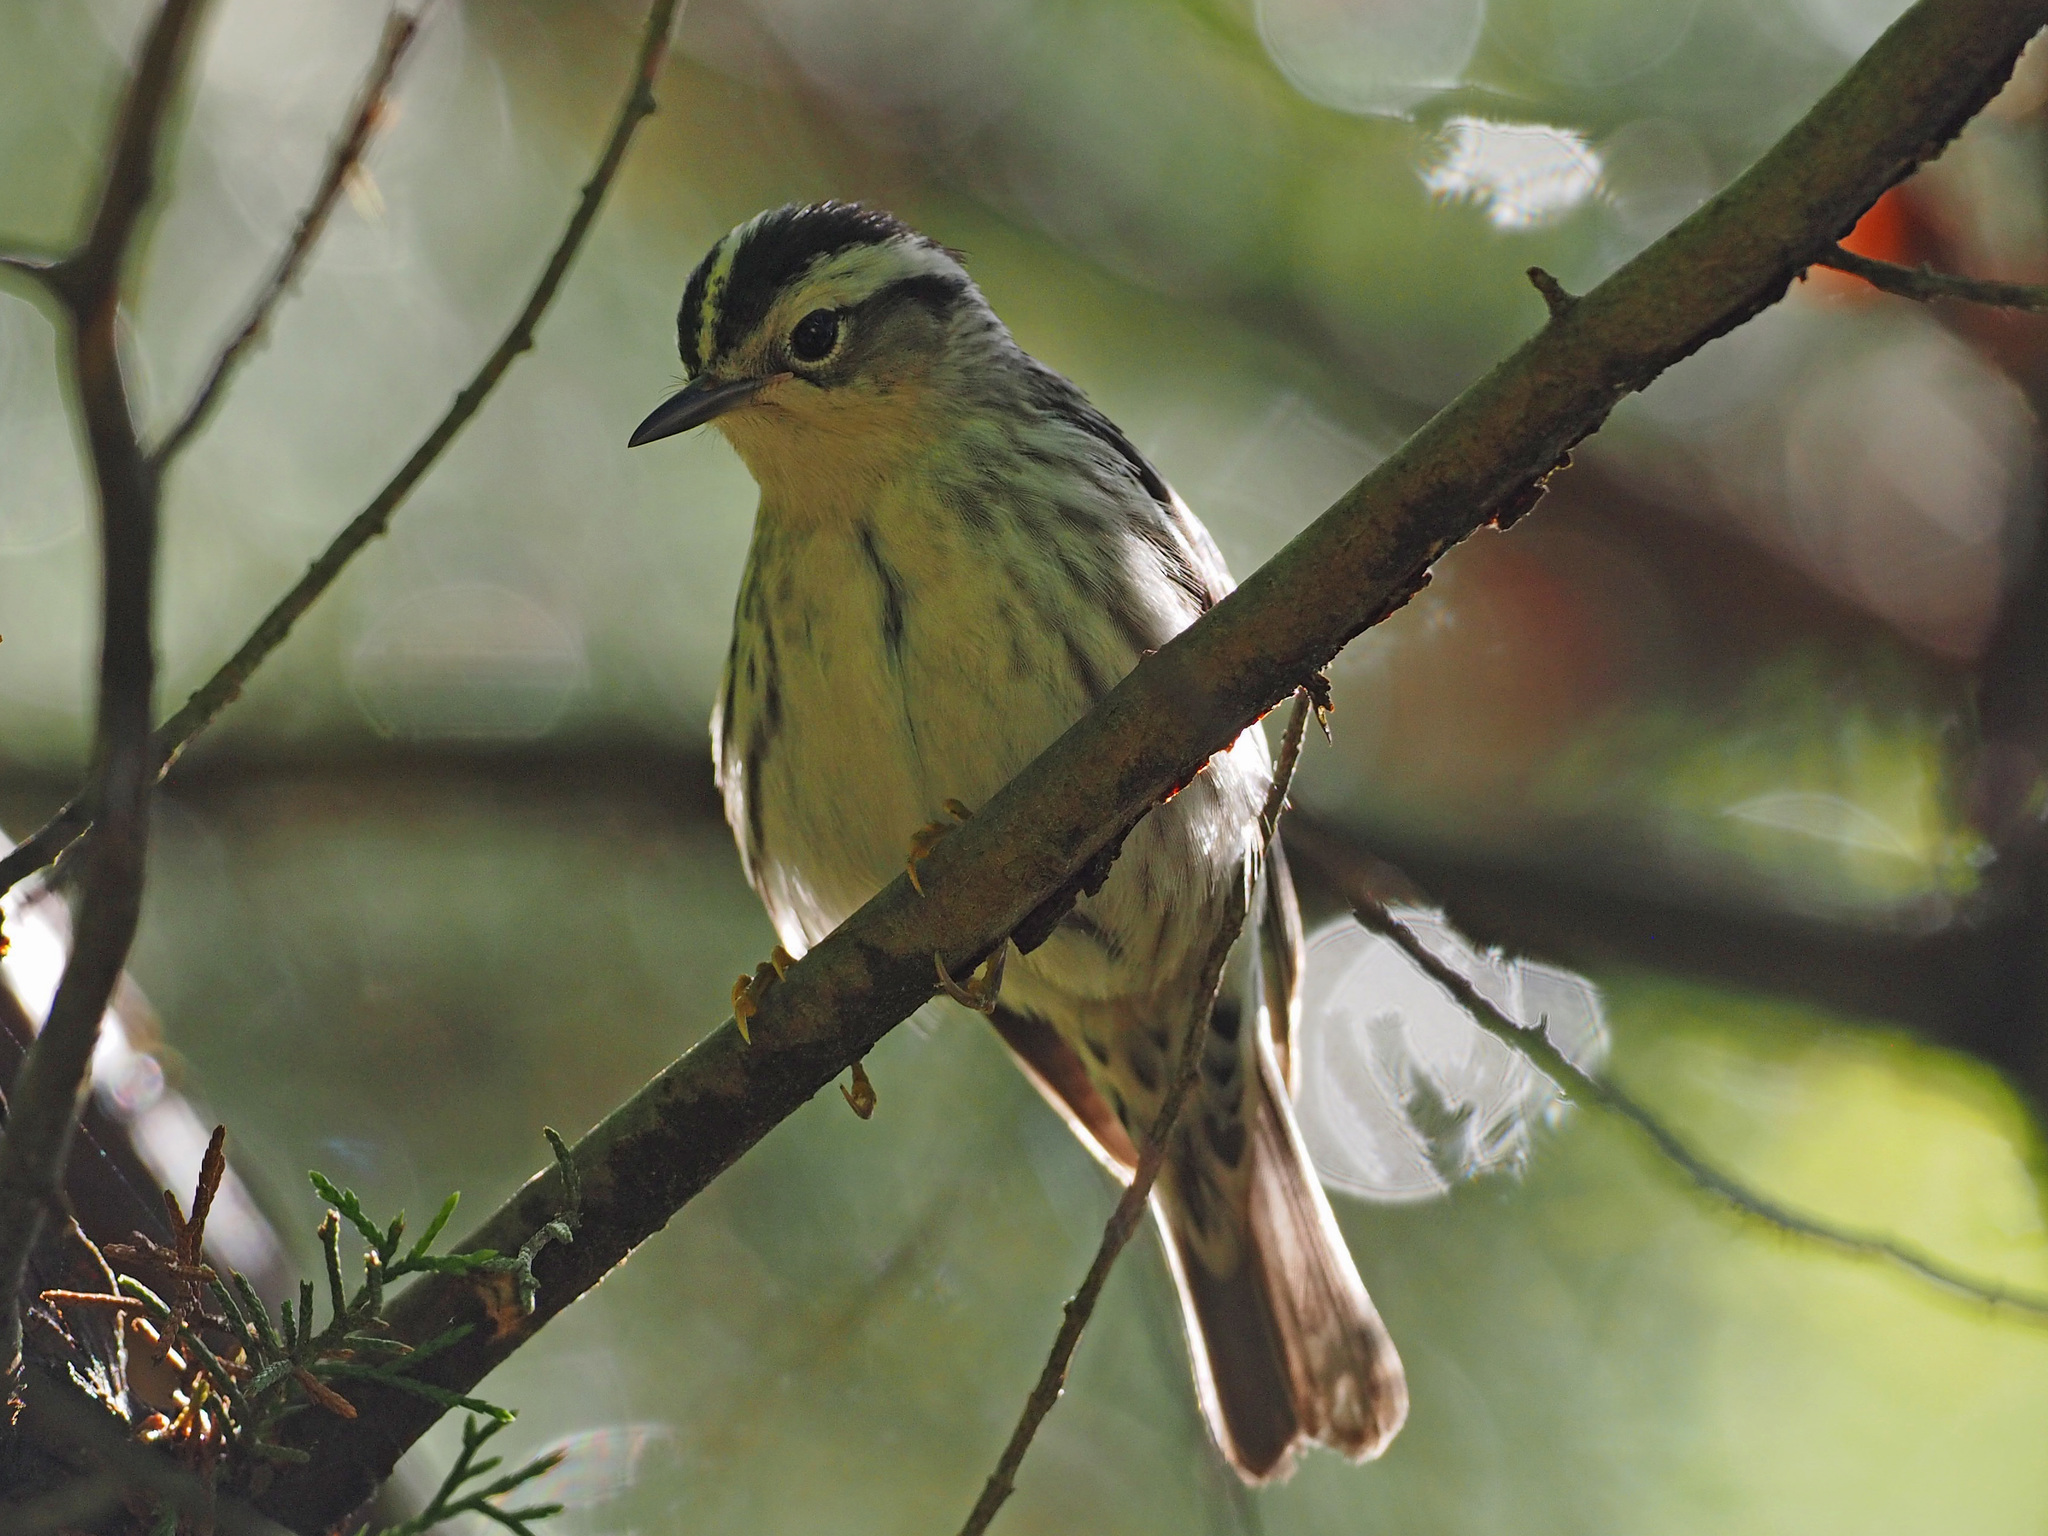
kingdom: Animalia
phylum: Chordata
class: Aves
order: Passeriformes
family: Parulidae
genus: Mniotilta
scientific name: Mniotilta varia
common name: Black-and-white warbler
